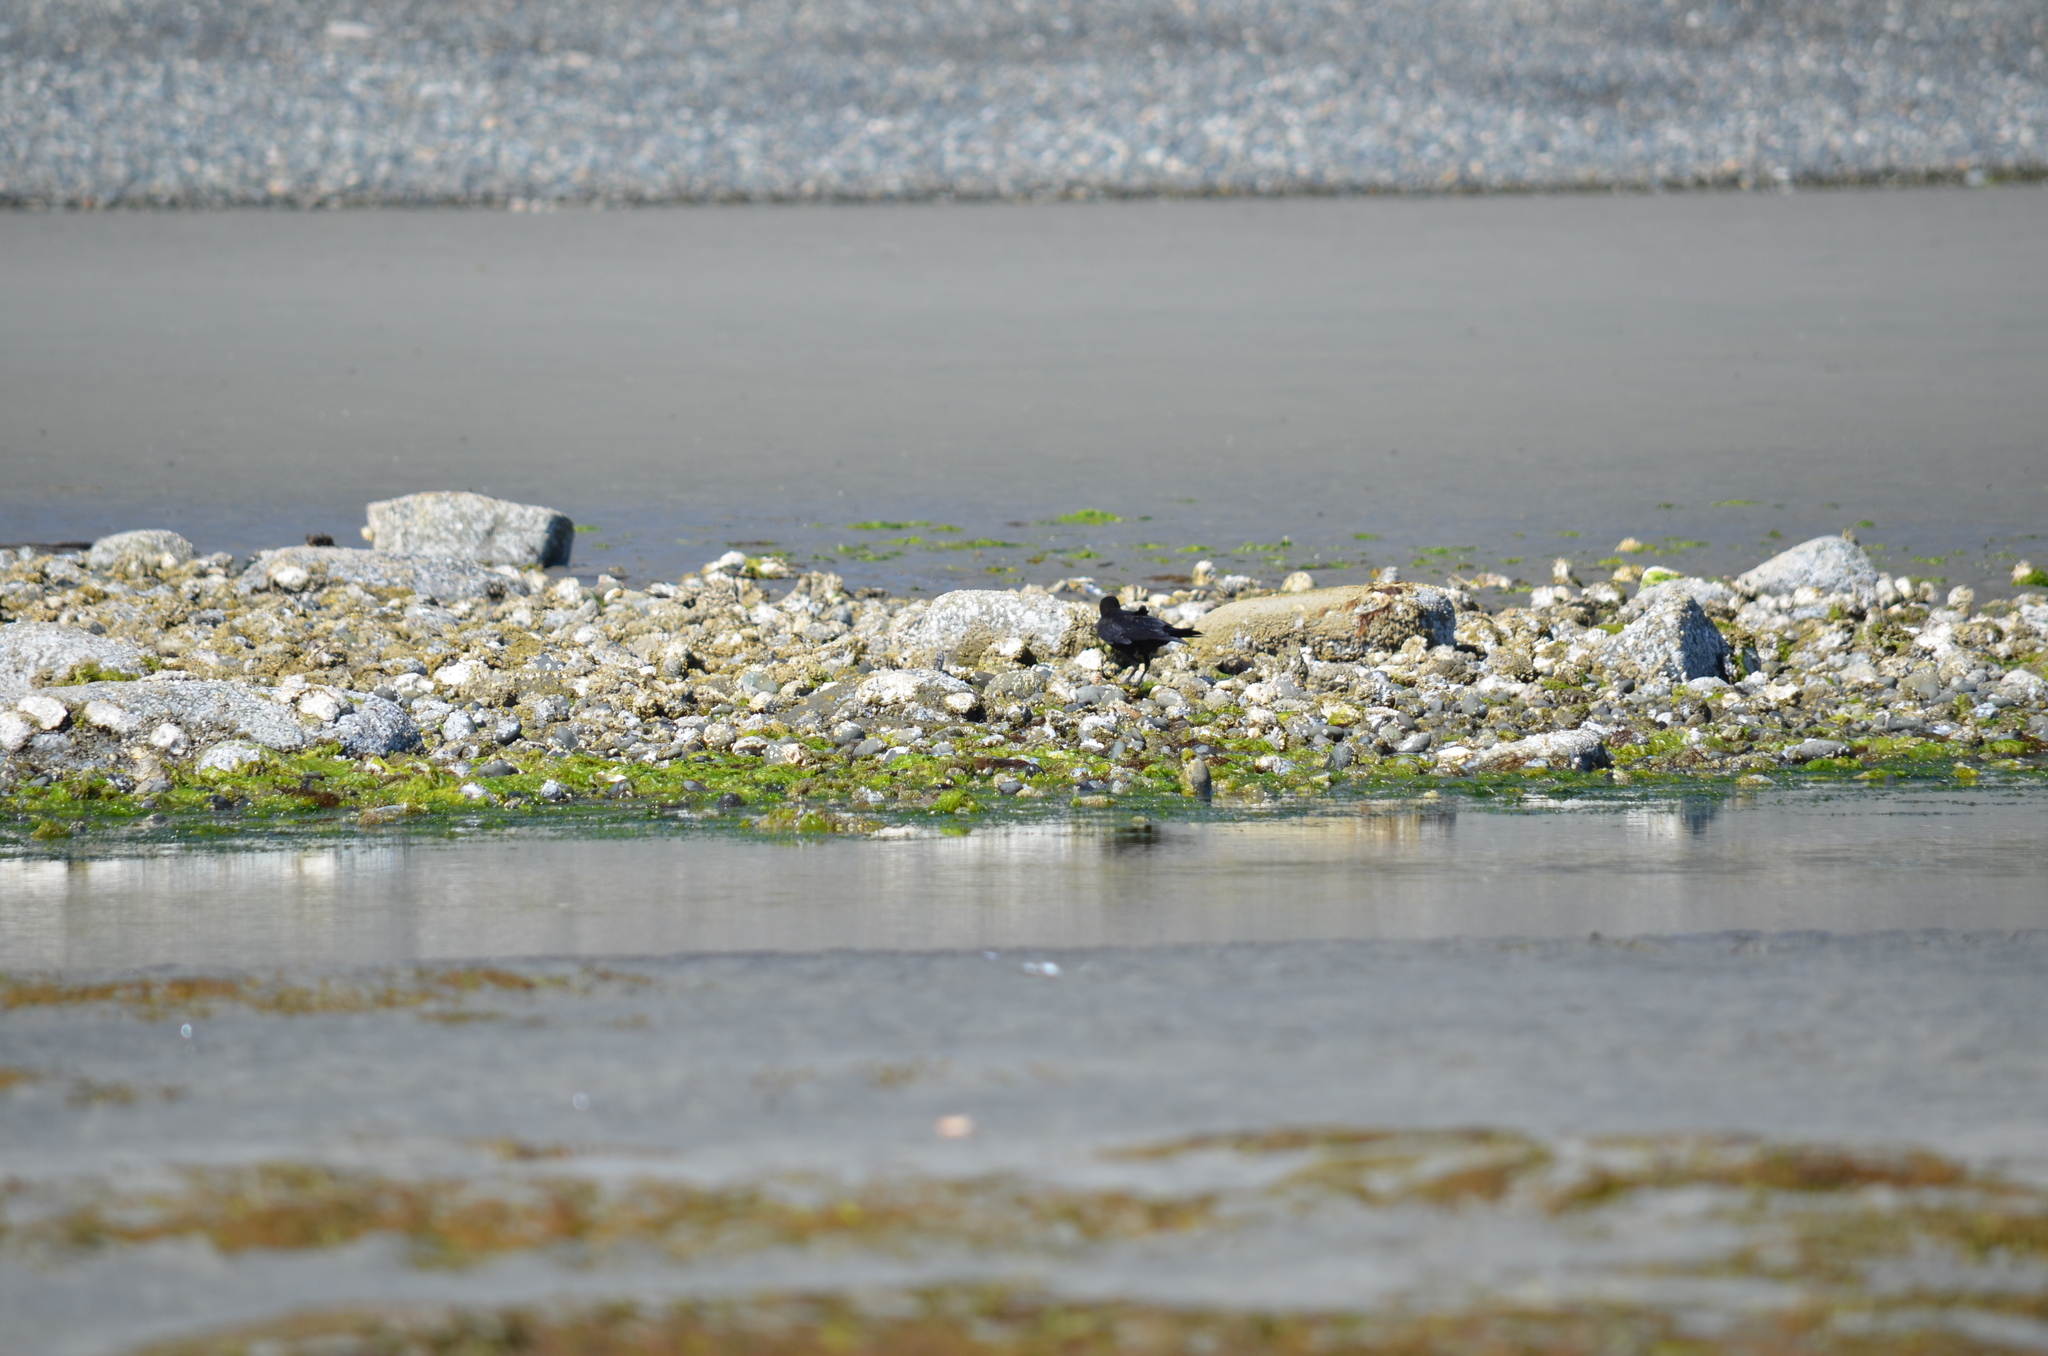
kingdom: Animalia
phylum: Chordata
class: Aves
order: Passeriformes
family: Corvidae
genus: Corvus
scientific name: Corvus brachyrhynchos
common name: American crow
